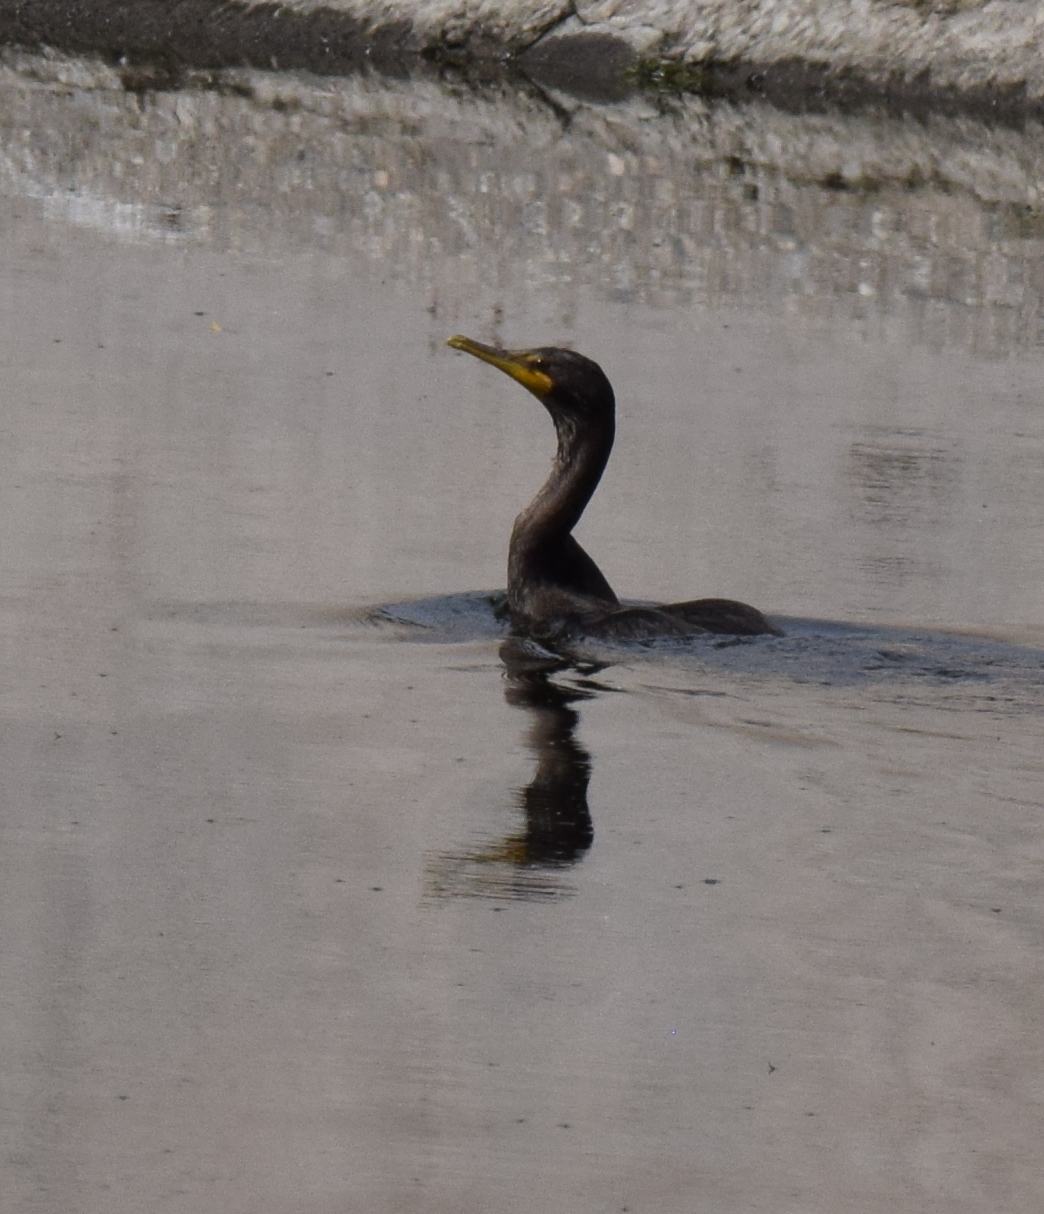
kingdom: Animalia
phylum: Chordata
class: Aves
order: Suliformes
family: Phalacrocoracidae
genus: Phalacrocorax
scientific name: Phalacrocorax auritus
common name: Double-crested cormorant
